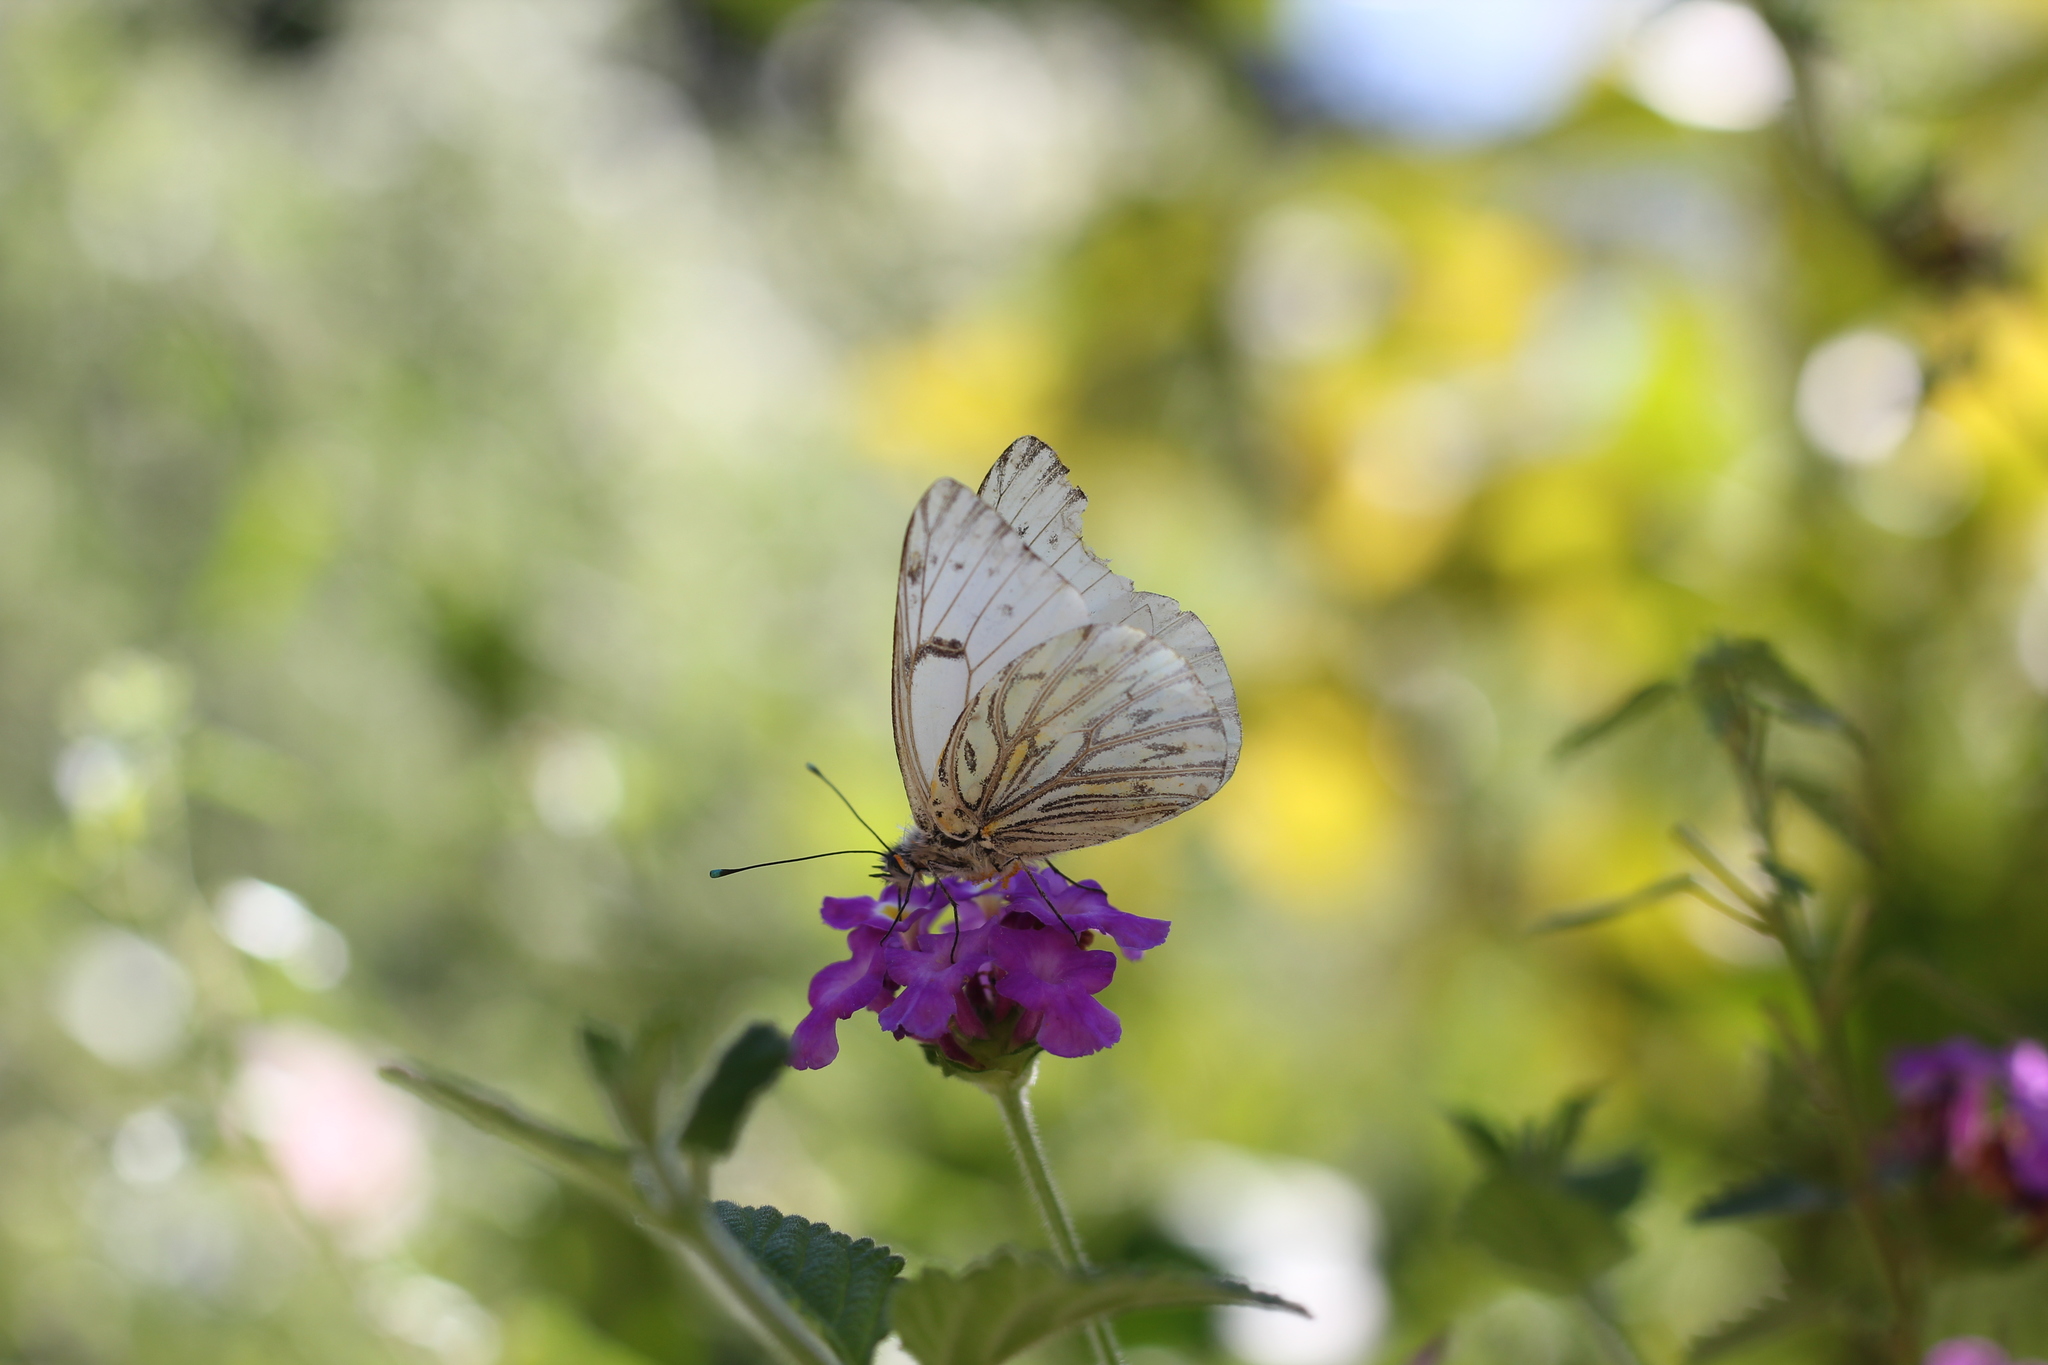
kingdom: Animalia
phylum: Arthropoda
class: Insecta
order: Lepidoptera
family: Pieridae
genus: Tatochila
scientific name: Tatochila autodice
